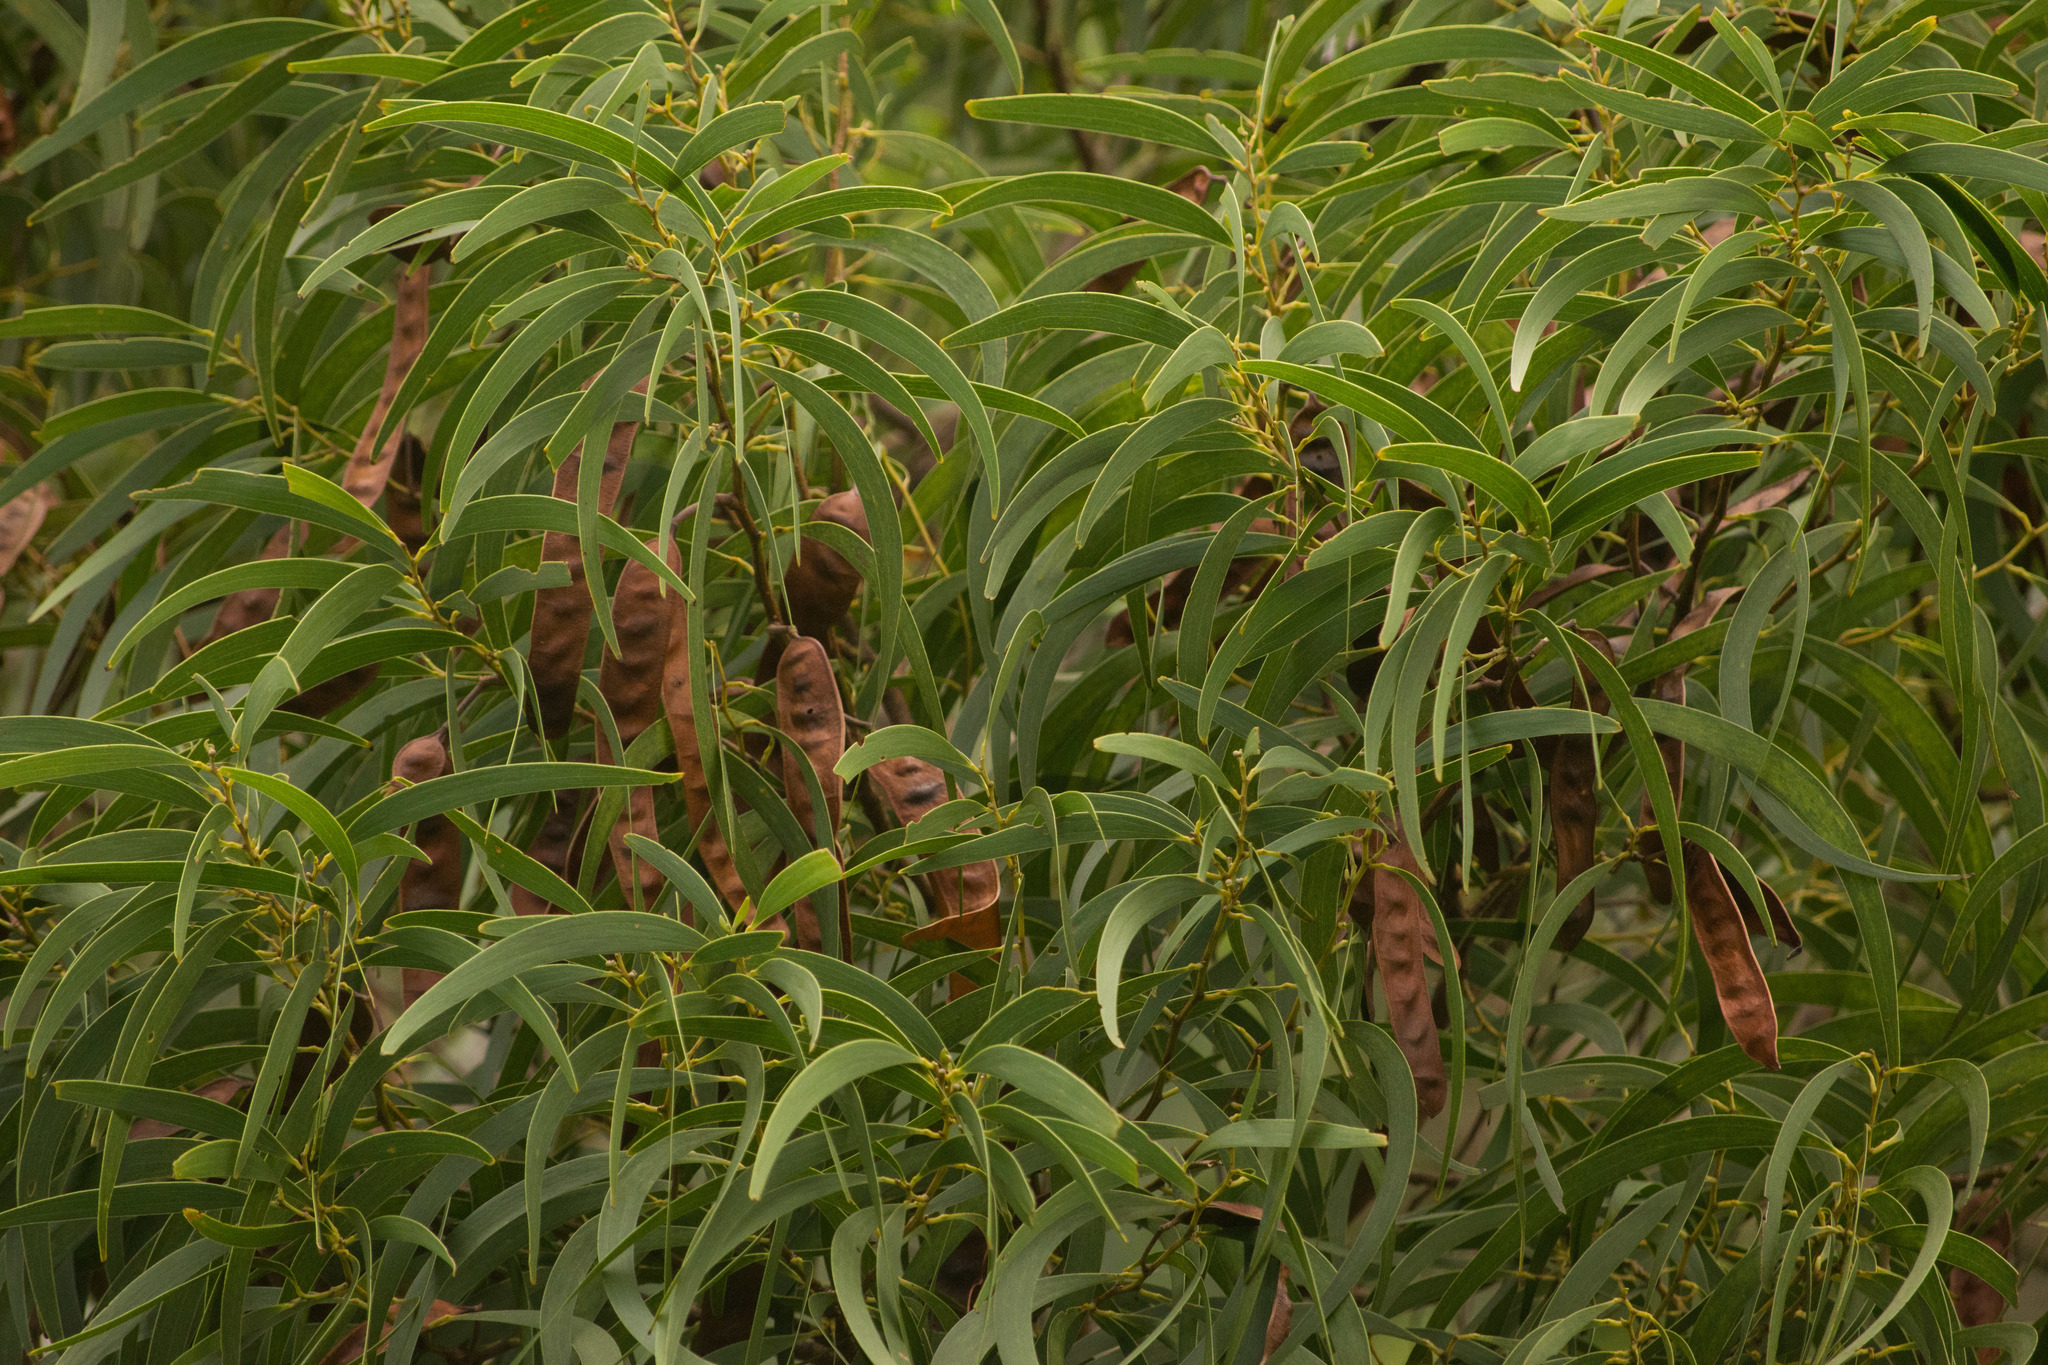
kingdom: Plantae
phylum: Tracheophyta
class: Magnoliopsida
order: Fabales
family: Fabaceae
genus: Acacia
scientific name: Acacia koa
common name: Gray koa
